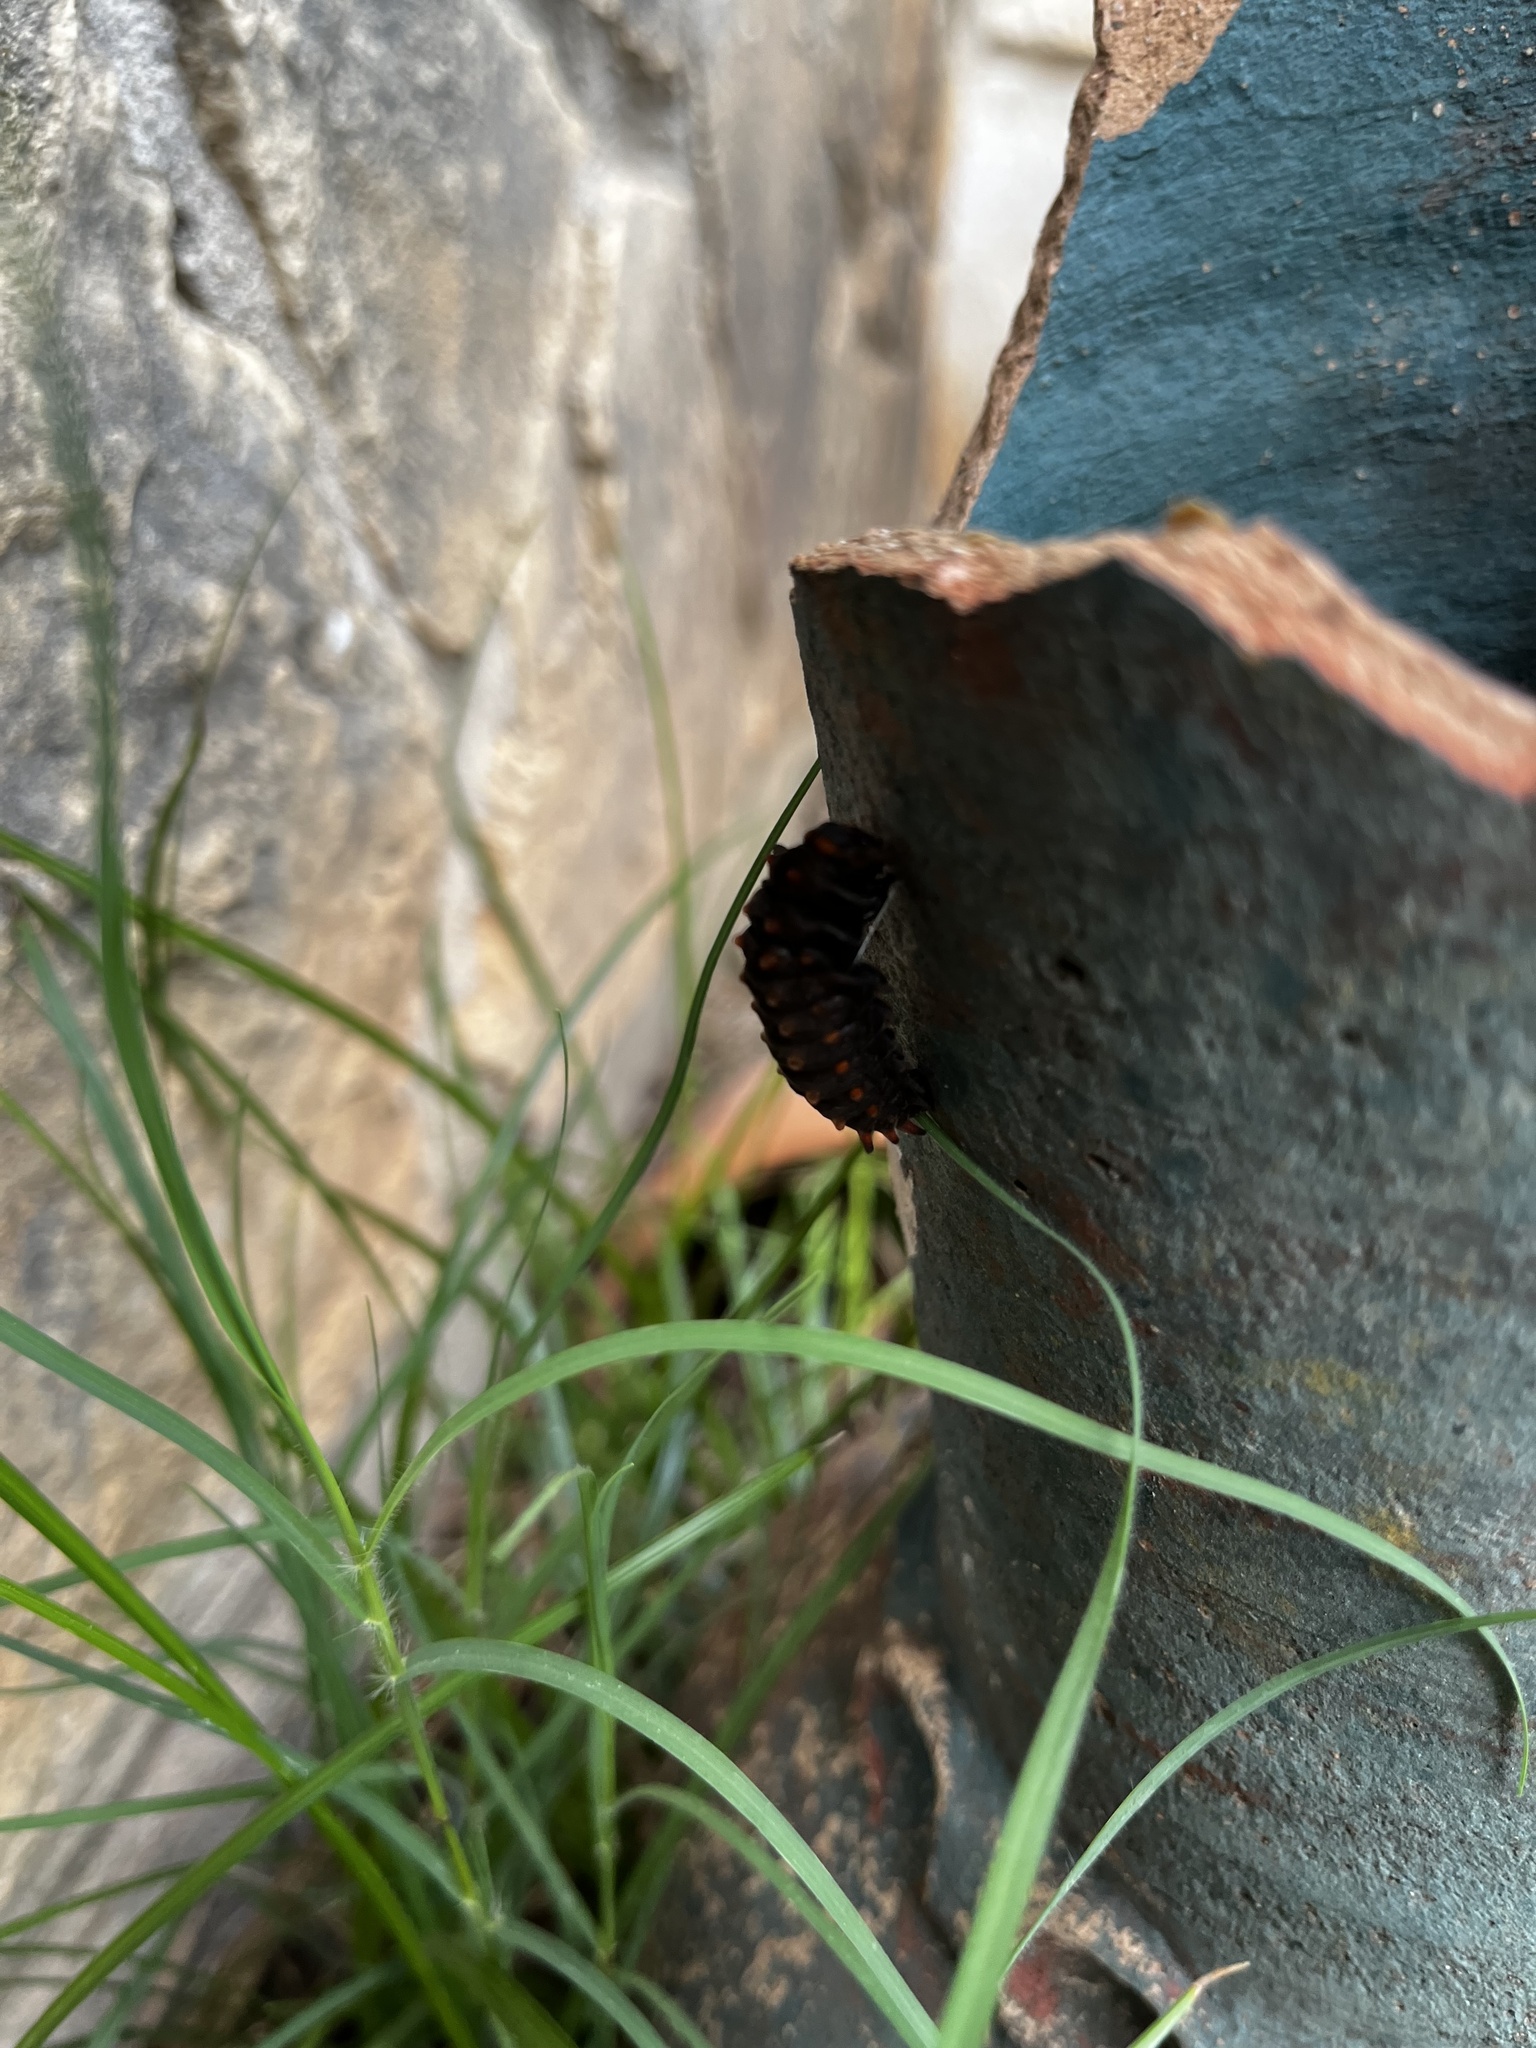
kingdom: Animalia
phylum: Arthropoda
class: Insecta
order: Lepidoptera
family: Papilionidae
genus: Battus
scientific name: Battus philenor
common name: Pipevine swallowtail
